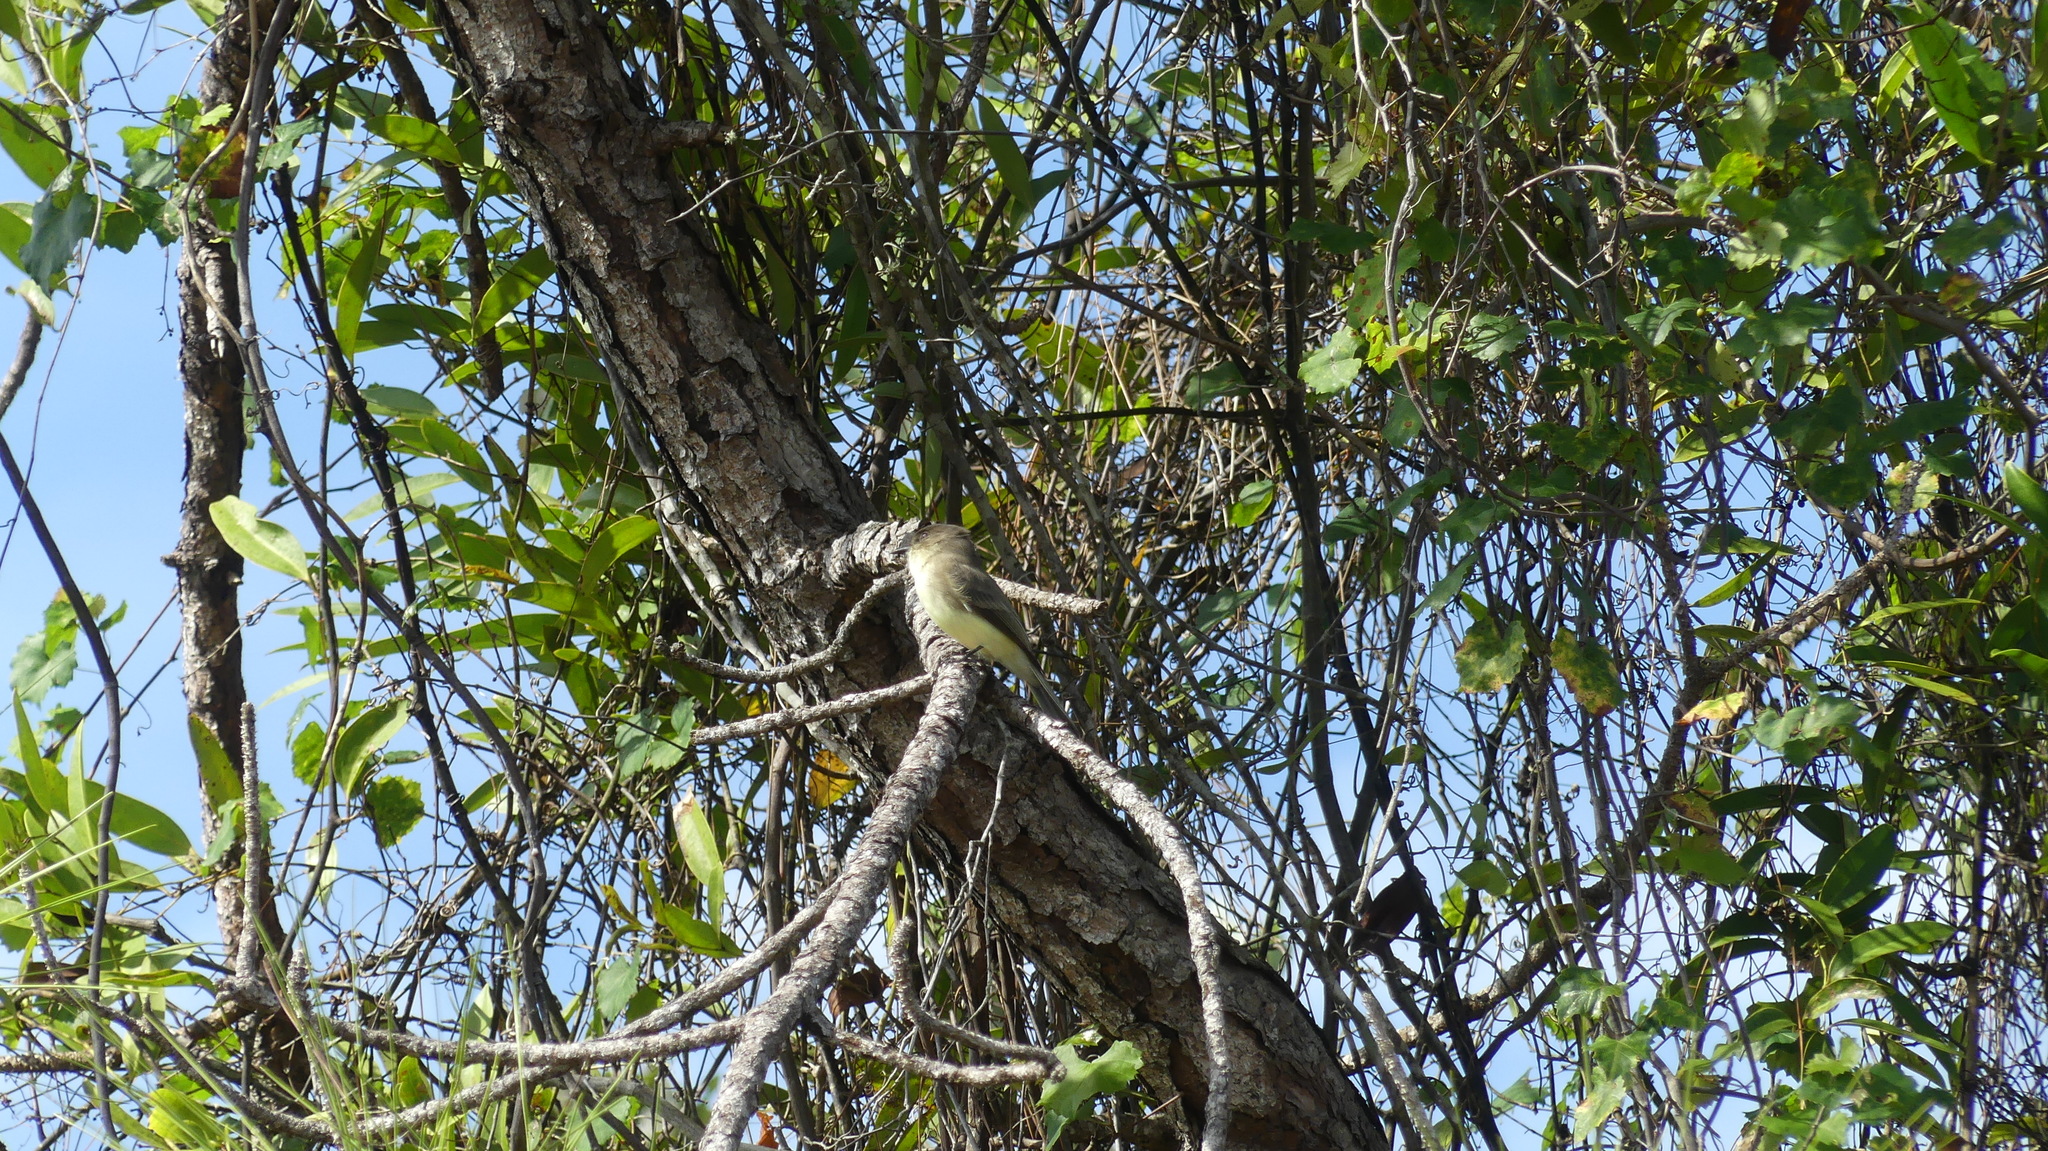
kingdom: Animalia
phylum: Chordata
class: Aves
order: Passeriformes
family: Tyrannidae
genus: Sayornis
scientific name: Sayornis phoebe
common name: Eastern phoebe
